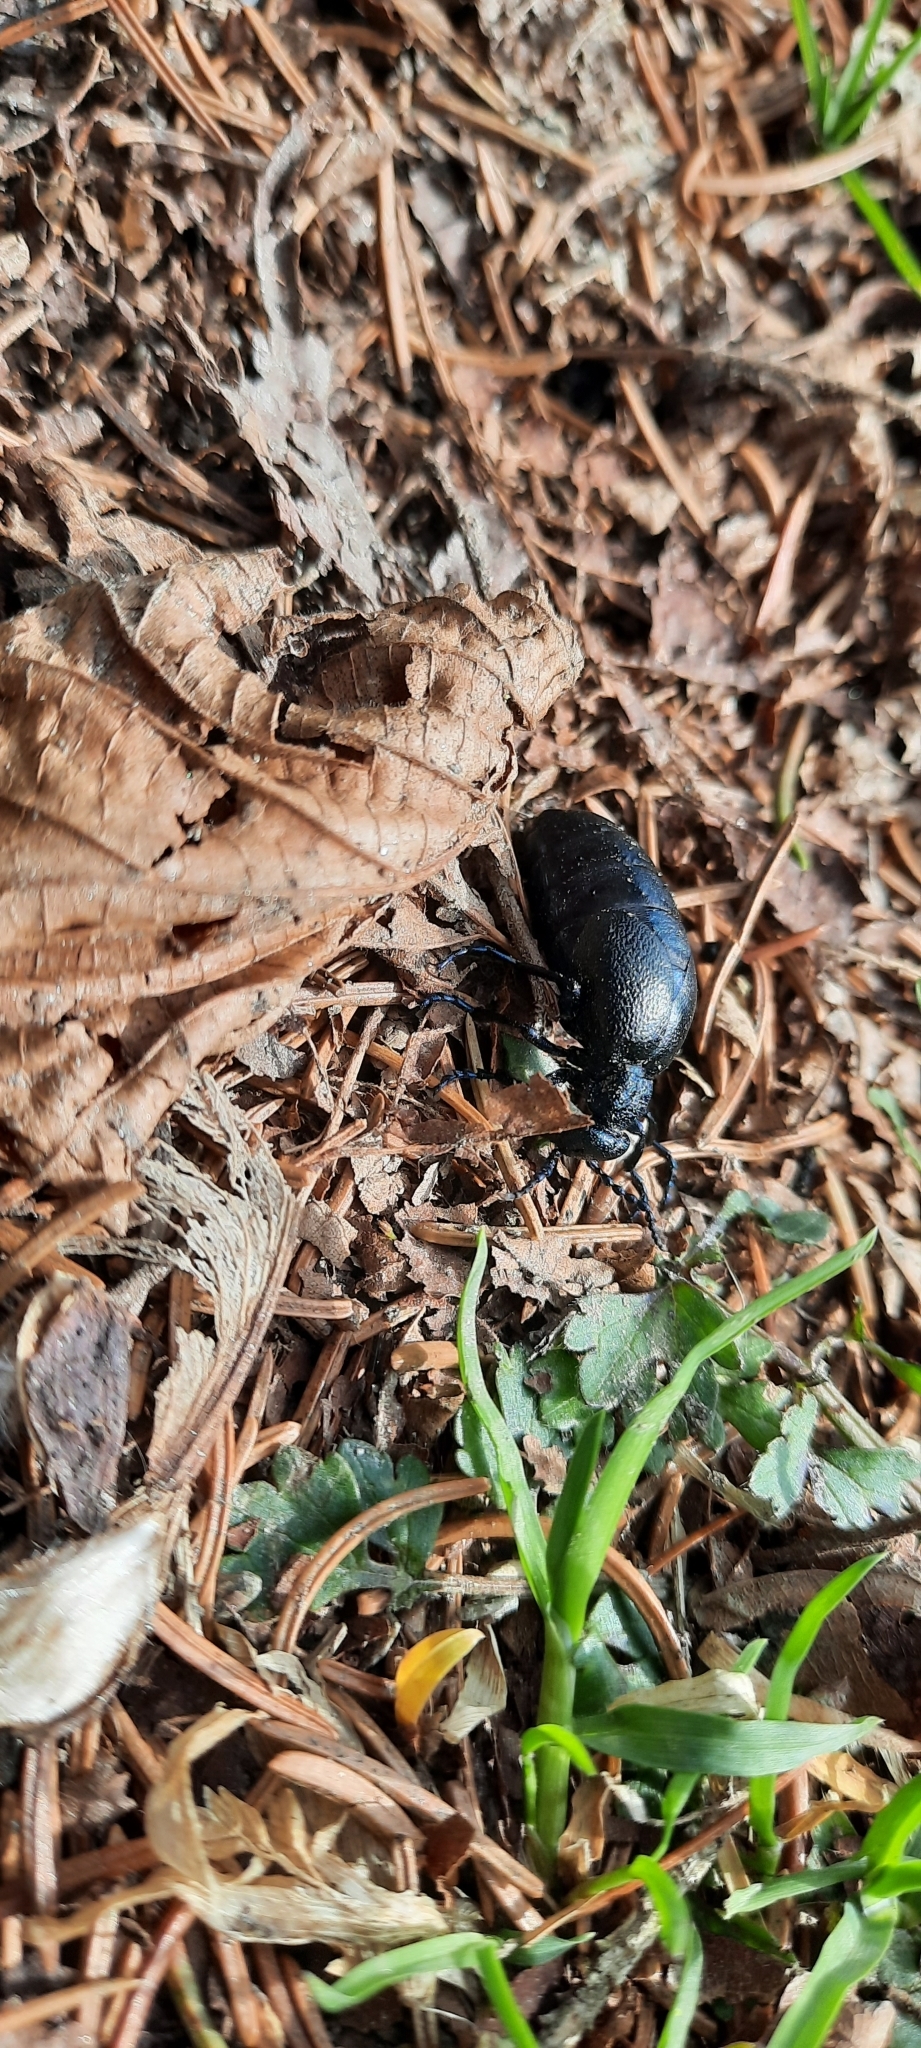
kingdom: Animalia
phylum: Arthropoda
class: Insecta
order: Coleoptera
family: Meloidae
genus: Meloe
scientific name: Meloe violaceus
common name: Violet oil-beetle
